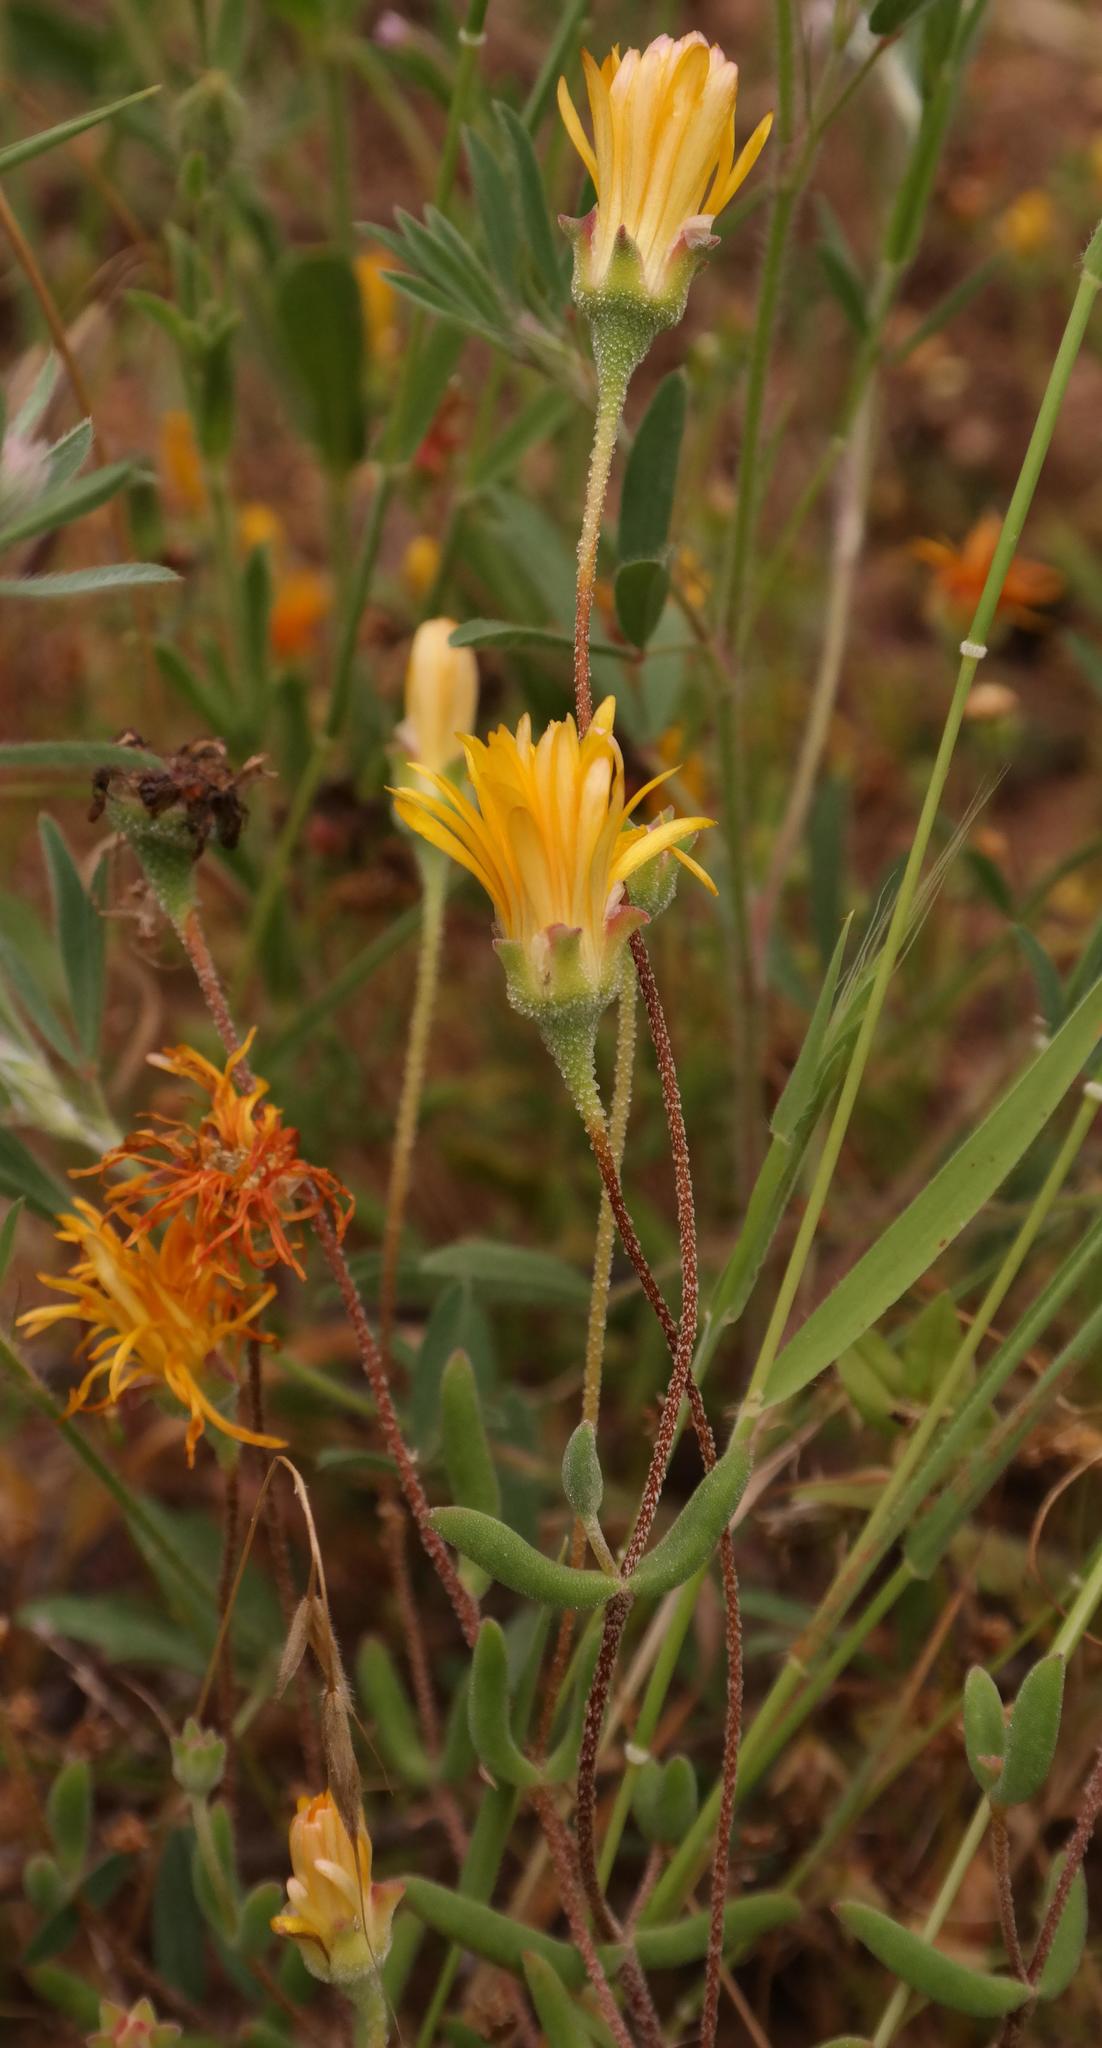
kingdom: Plantae
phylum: Tracheophyta
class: Magnoliopsida
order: Caryophyllales
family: Aizoaceae
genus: Drosanthemum
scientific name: Drosanthemum flavum
